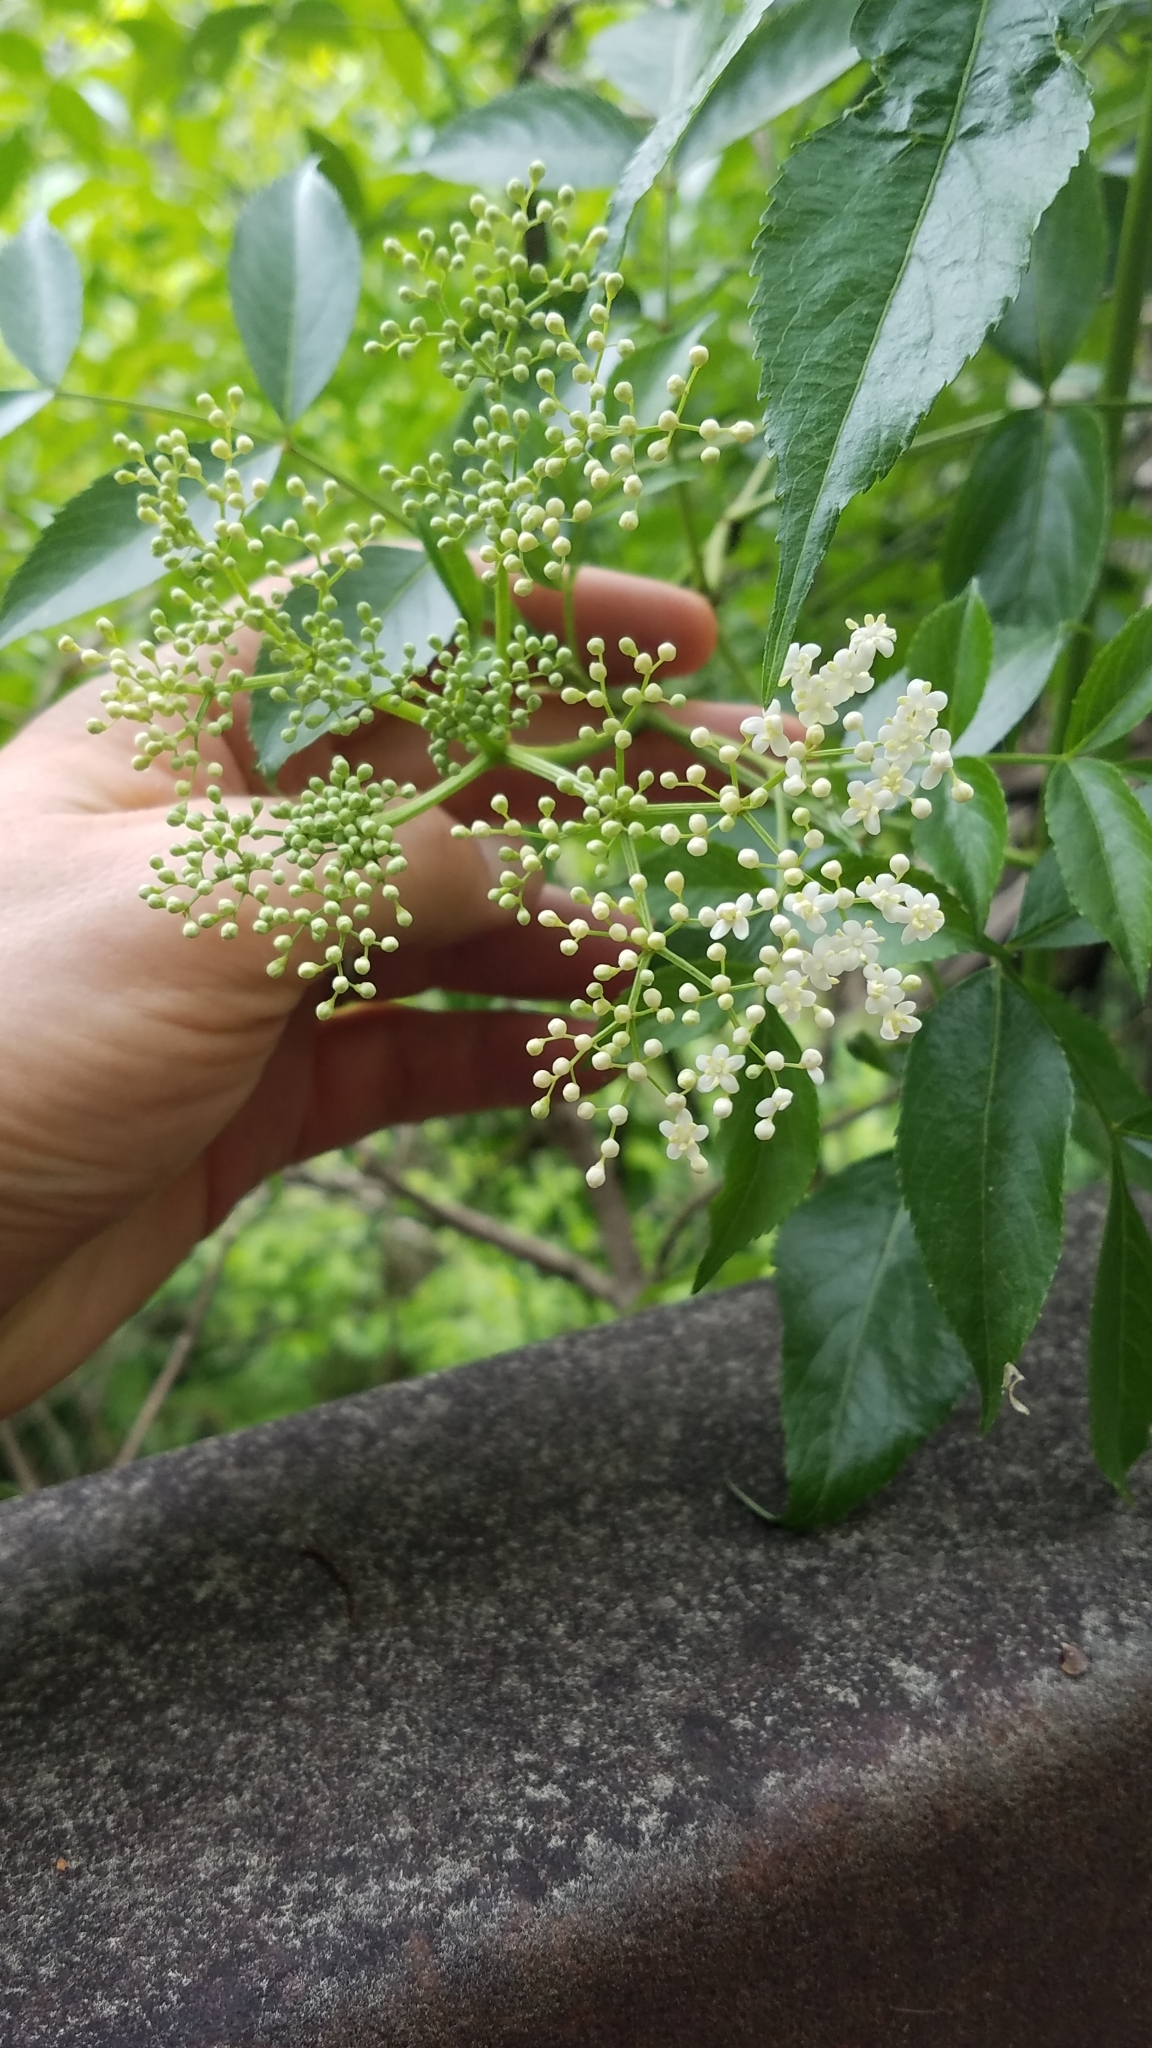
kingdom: Plantae
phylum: Tracheophyta
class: Magnoliopsida
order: Dipsacales
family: Viburnaceae
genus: Sambucus
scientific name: Sambucus canadensis
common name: American elder
